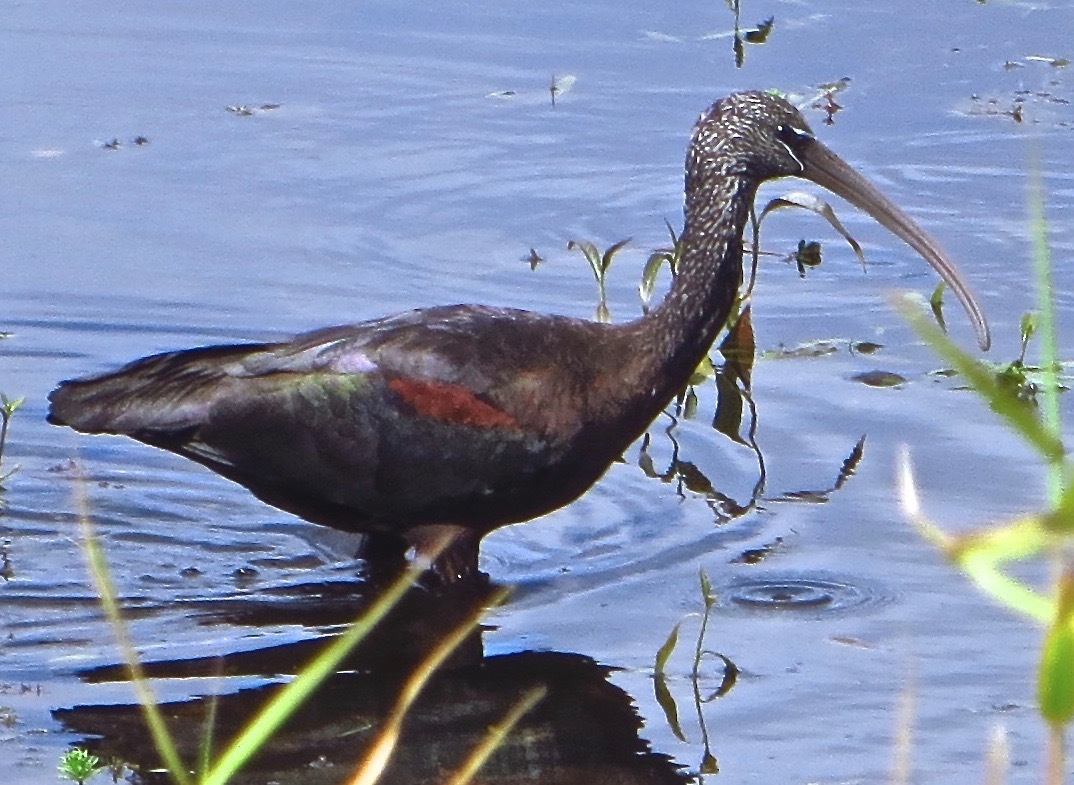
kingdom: Animalia
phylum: Chordata
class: Aves
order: Pelecaniformes
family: Threskiornithidae
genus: Plegadis
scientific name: Plegadis falcinellus
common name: Glossy ibis
